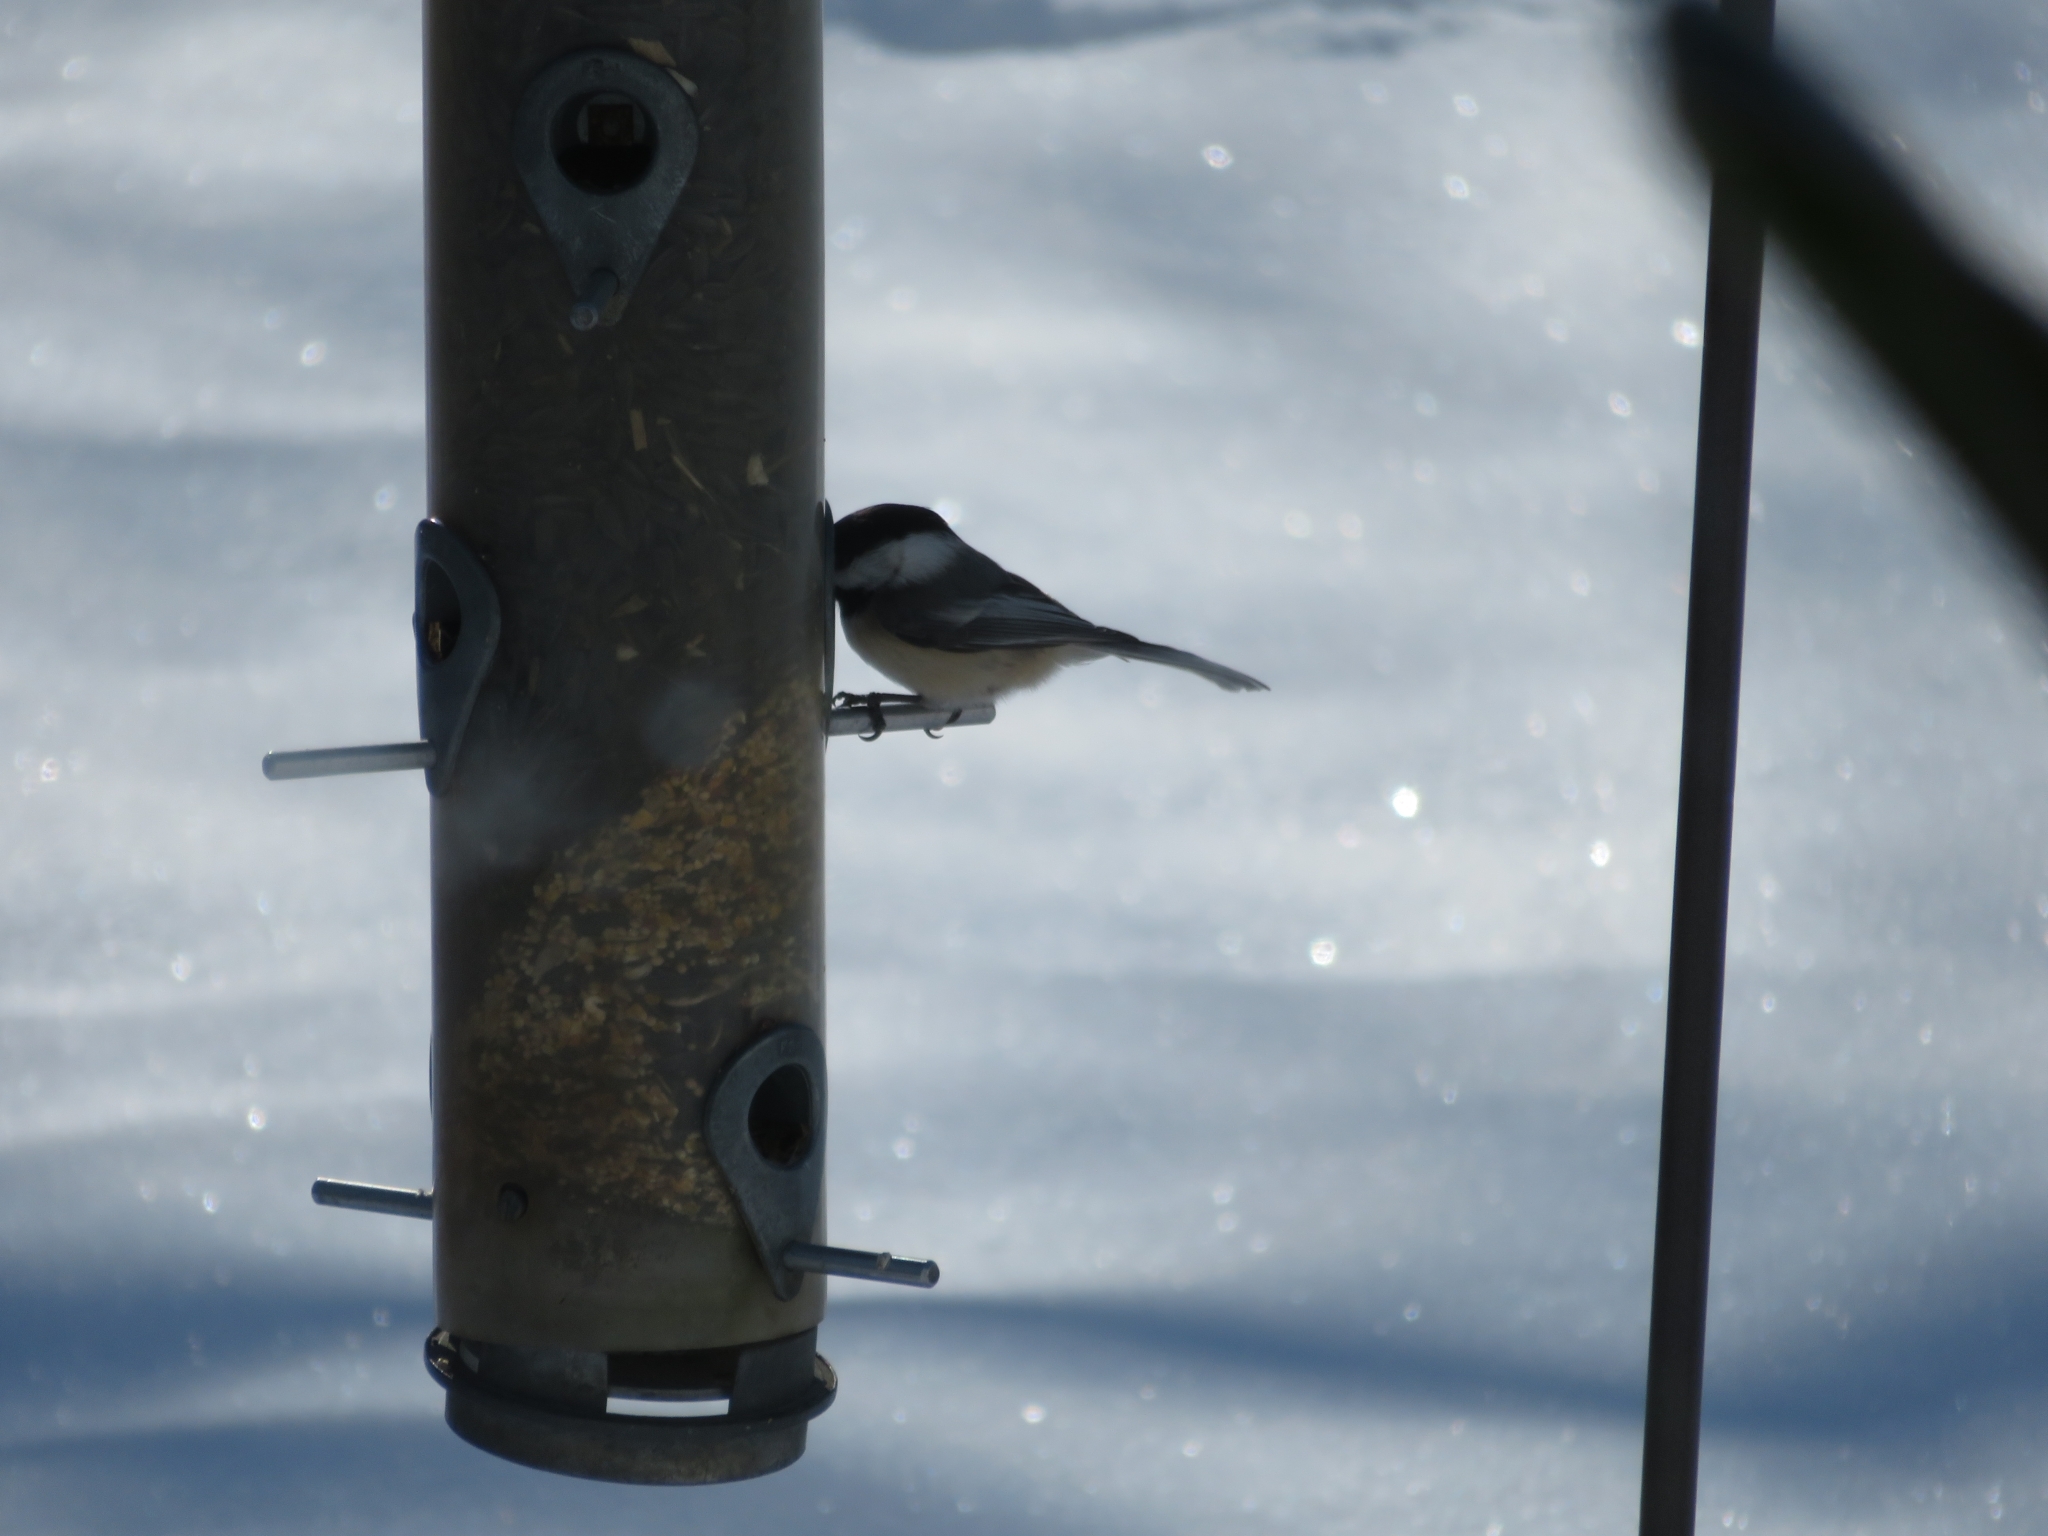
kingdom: Animalia
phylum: Chordata
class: Aves
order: Passeriformes
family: Paridae
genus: Poecile
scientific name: Poecile atricapillus
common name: Black-capped chickadee
